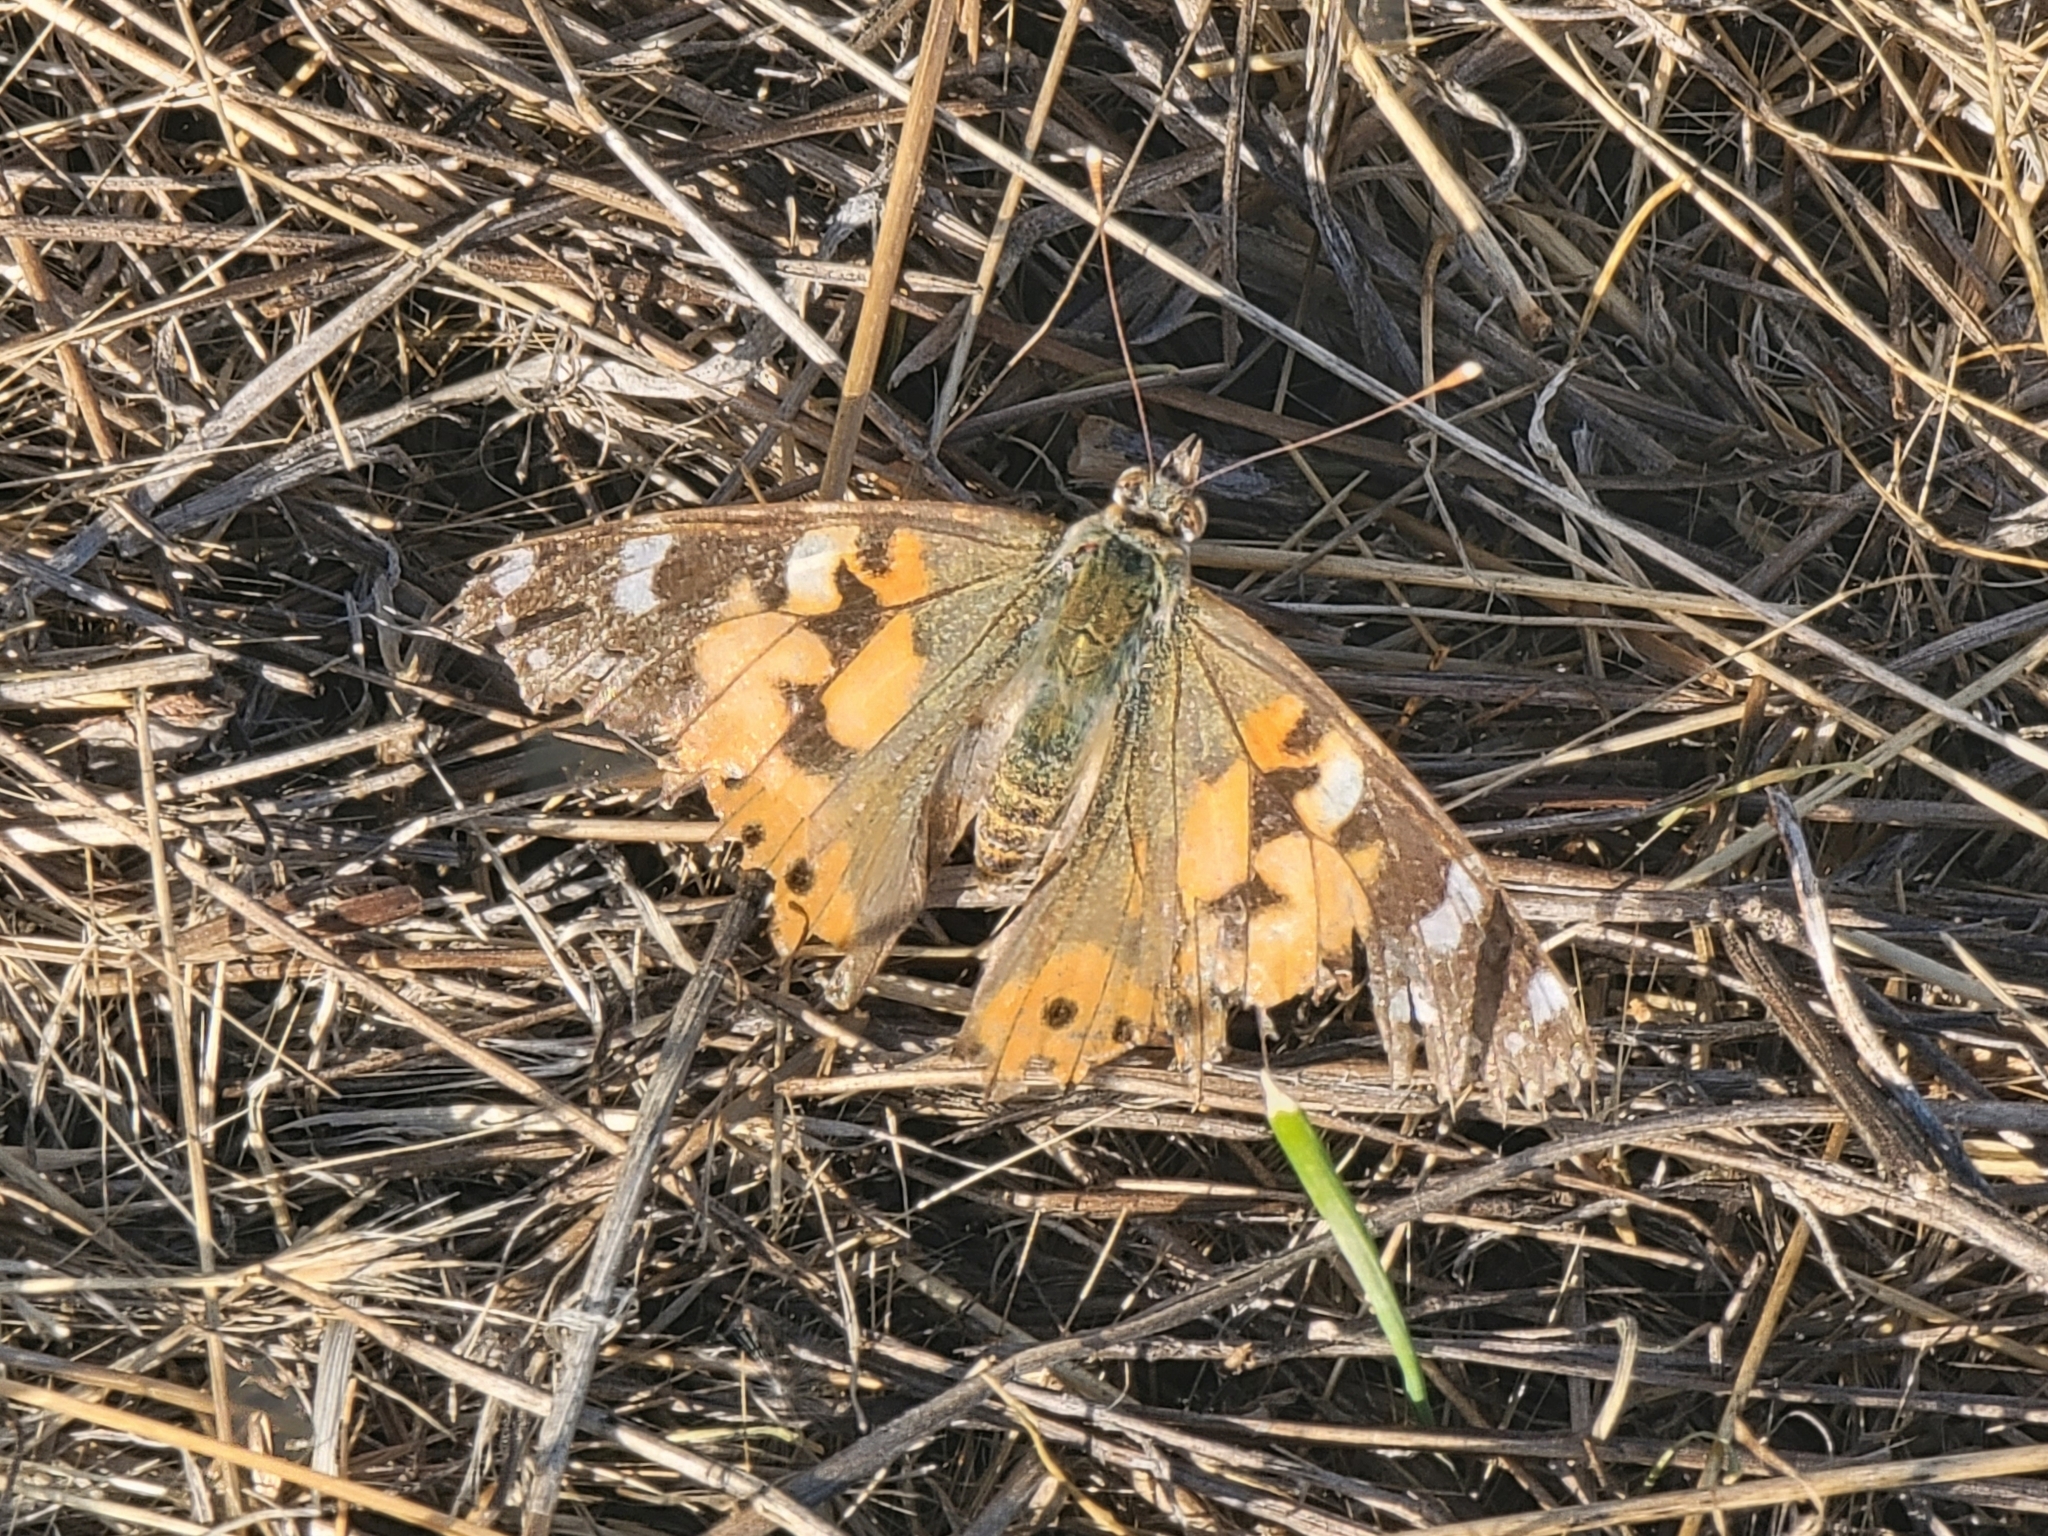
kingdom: Animalia
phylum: Arthropoda
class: Insecta
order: Lepidoptera
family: Nymphalidae
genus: Vanessa
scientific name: Vanessa cardui
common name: Painted lady
